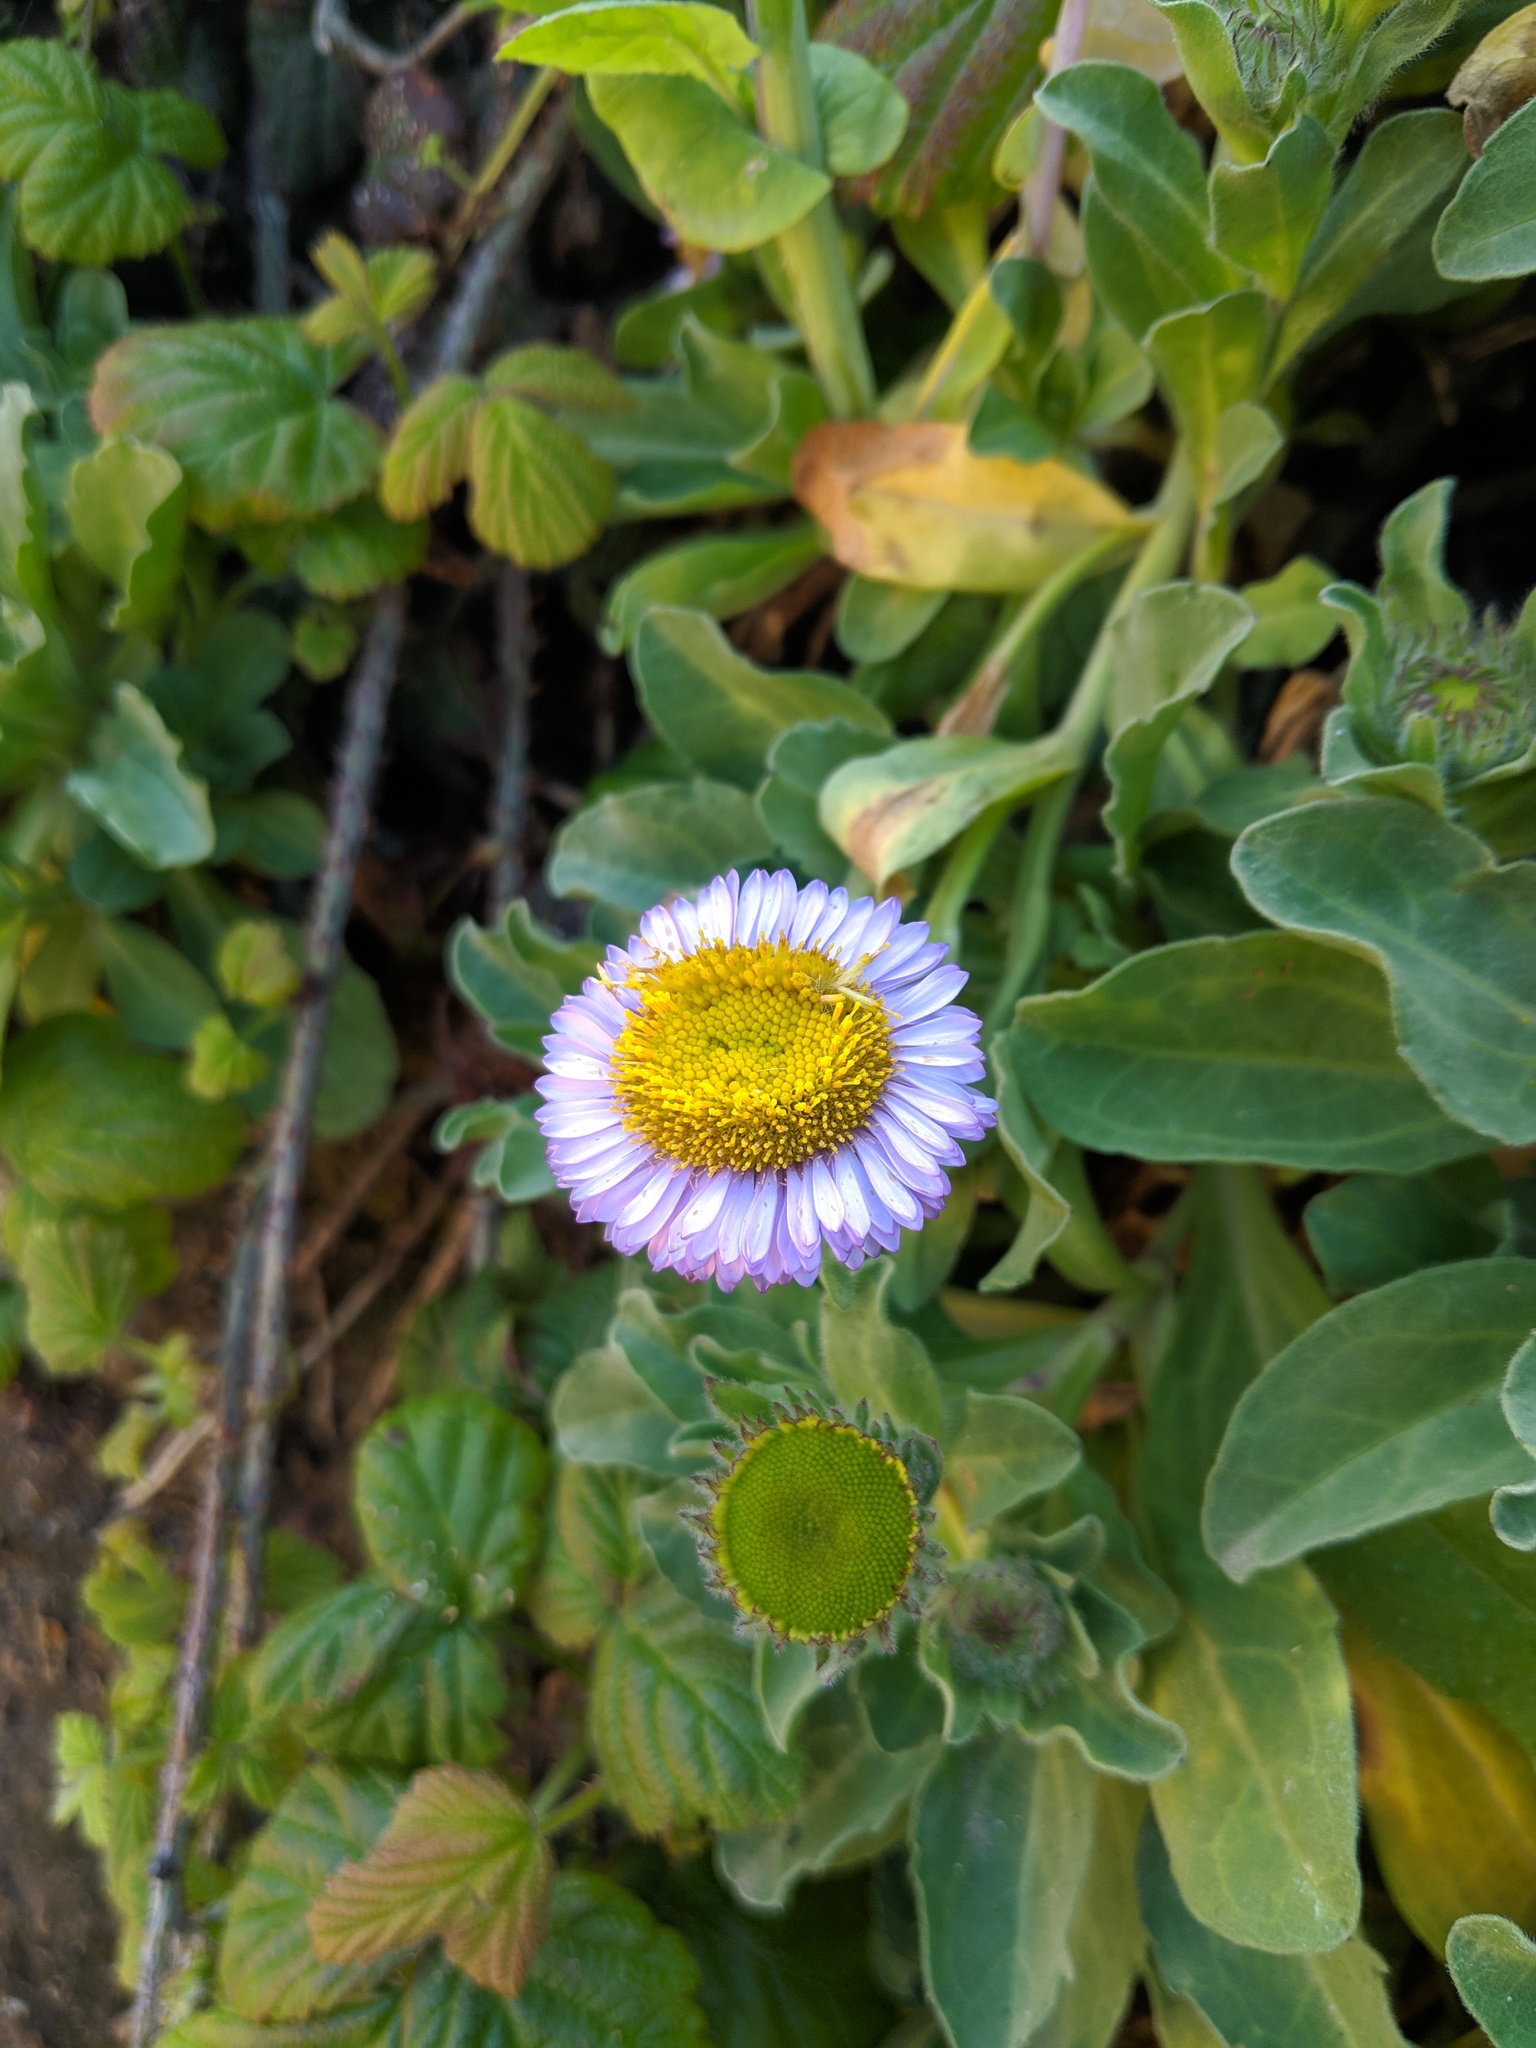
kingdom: Plantae
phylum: Tracheophyta
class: Magnoliopsida
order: Asterales
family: Asteraceae
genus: Erigeron
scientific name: Erigeron glaucus
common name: Seaside daisy
